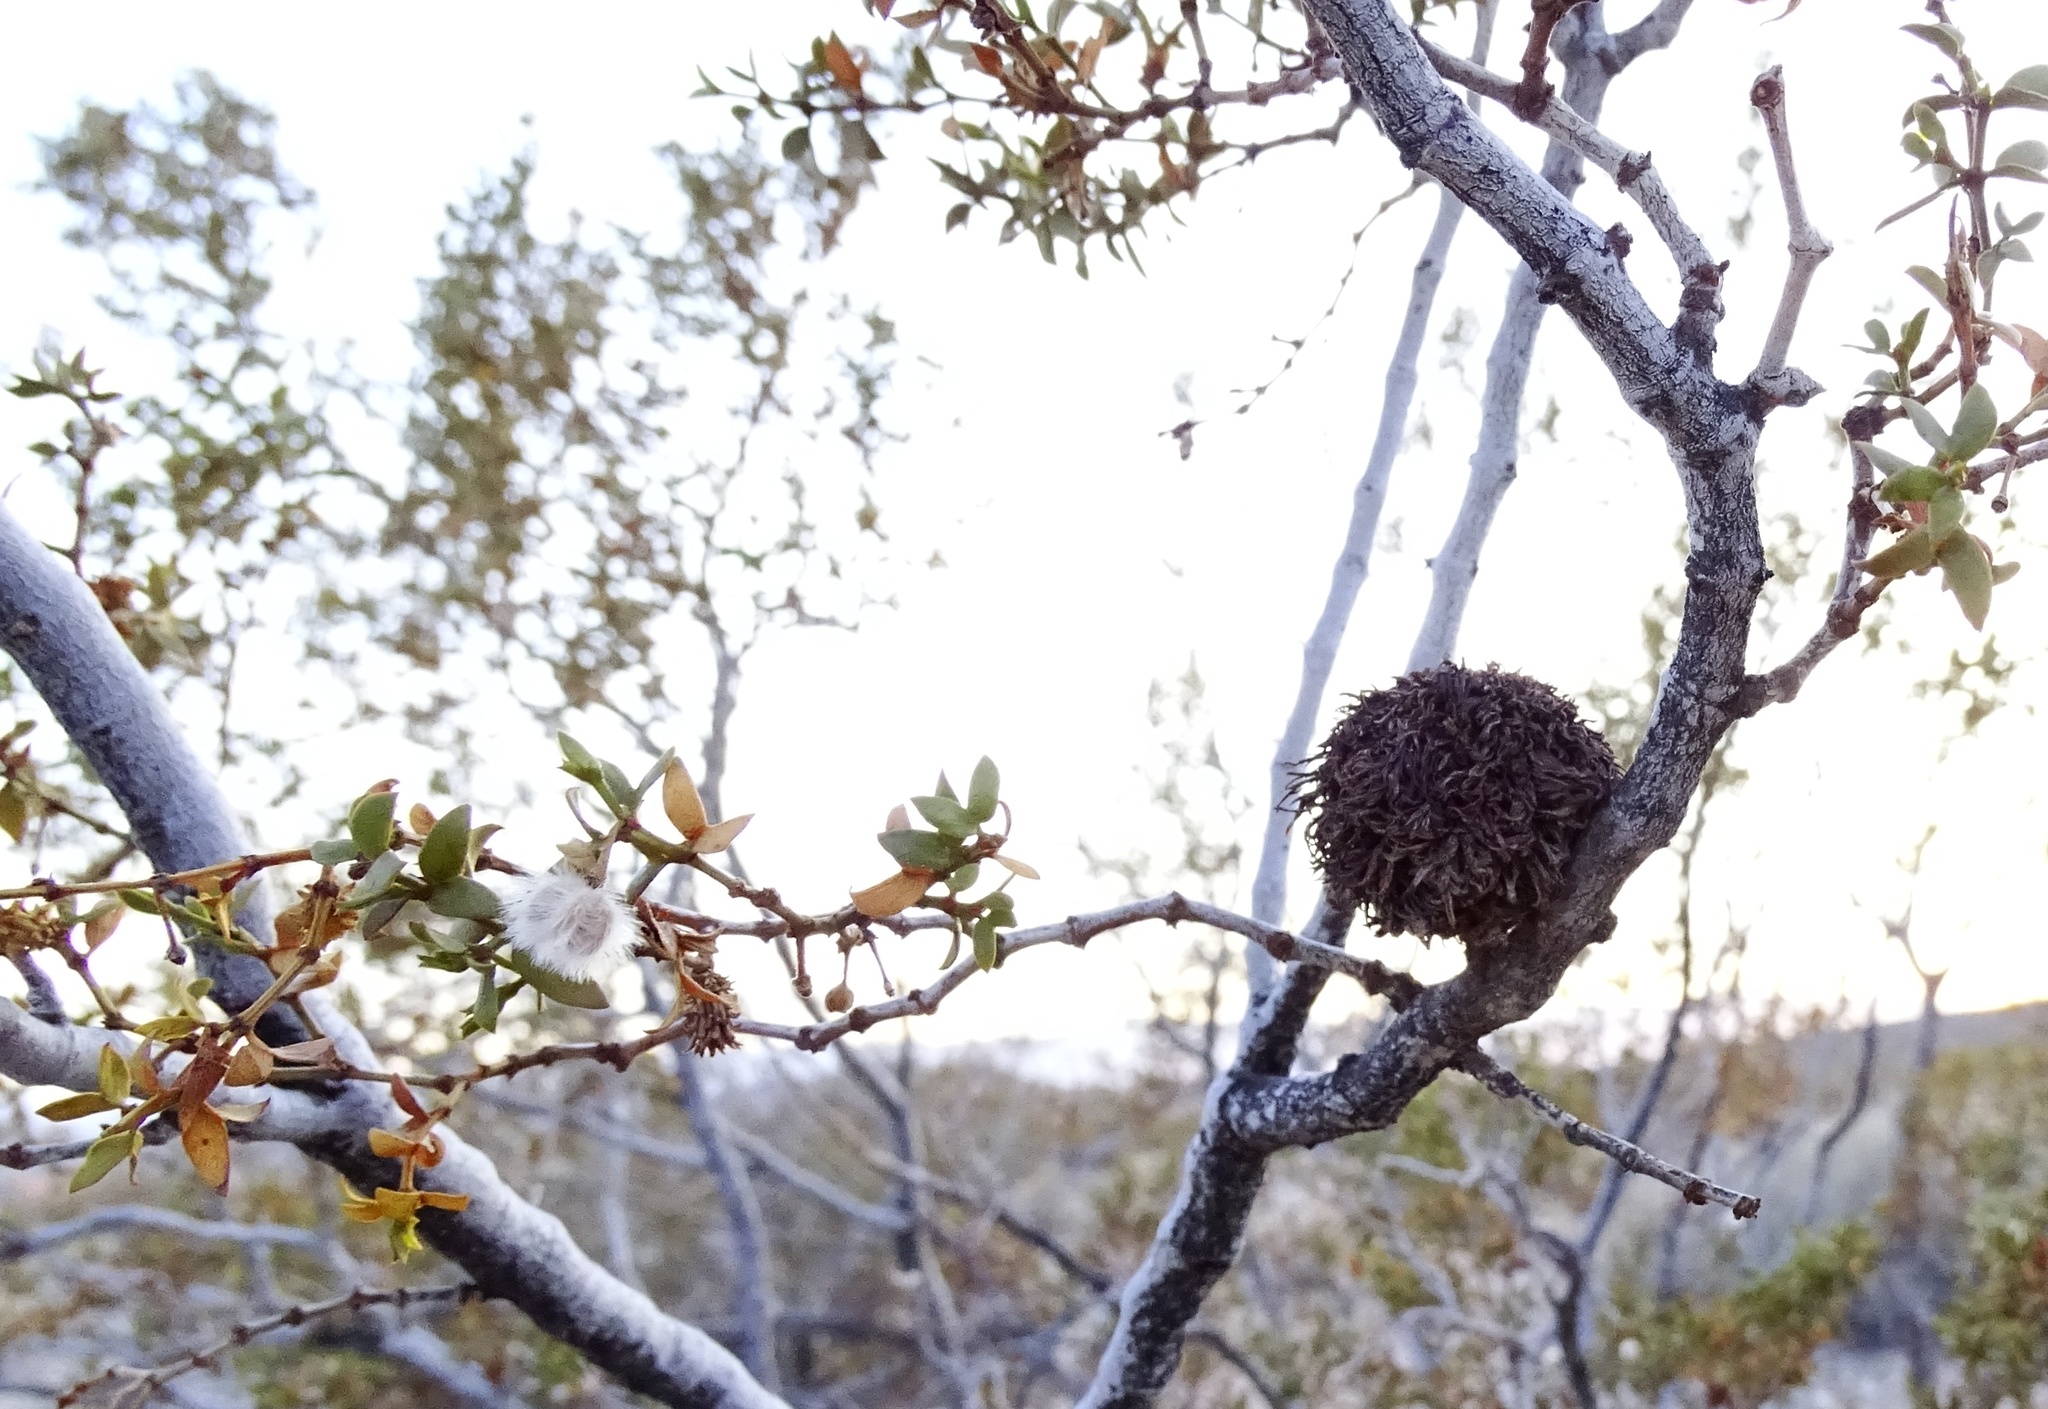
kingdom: Animalia
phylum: Arthropoda
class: Insecta
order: Diptera
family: Cecidomyiidae
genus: Asphondylia
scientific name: Asphondylia auripila
